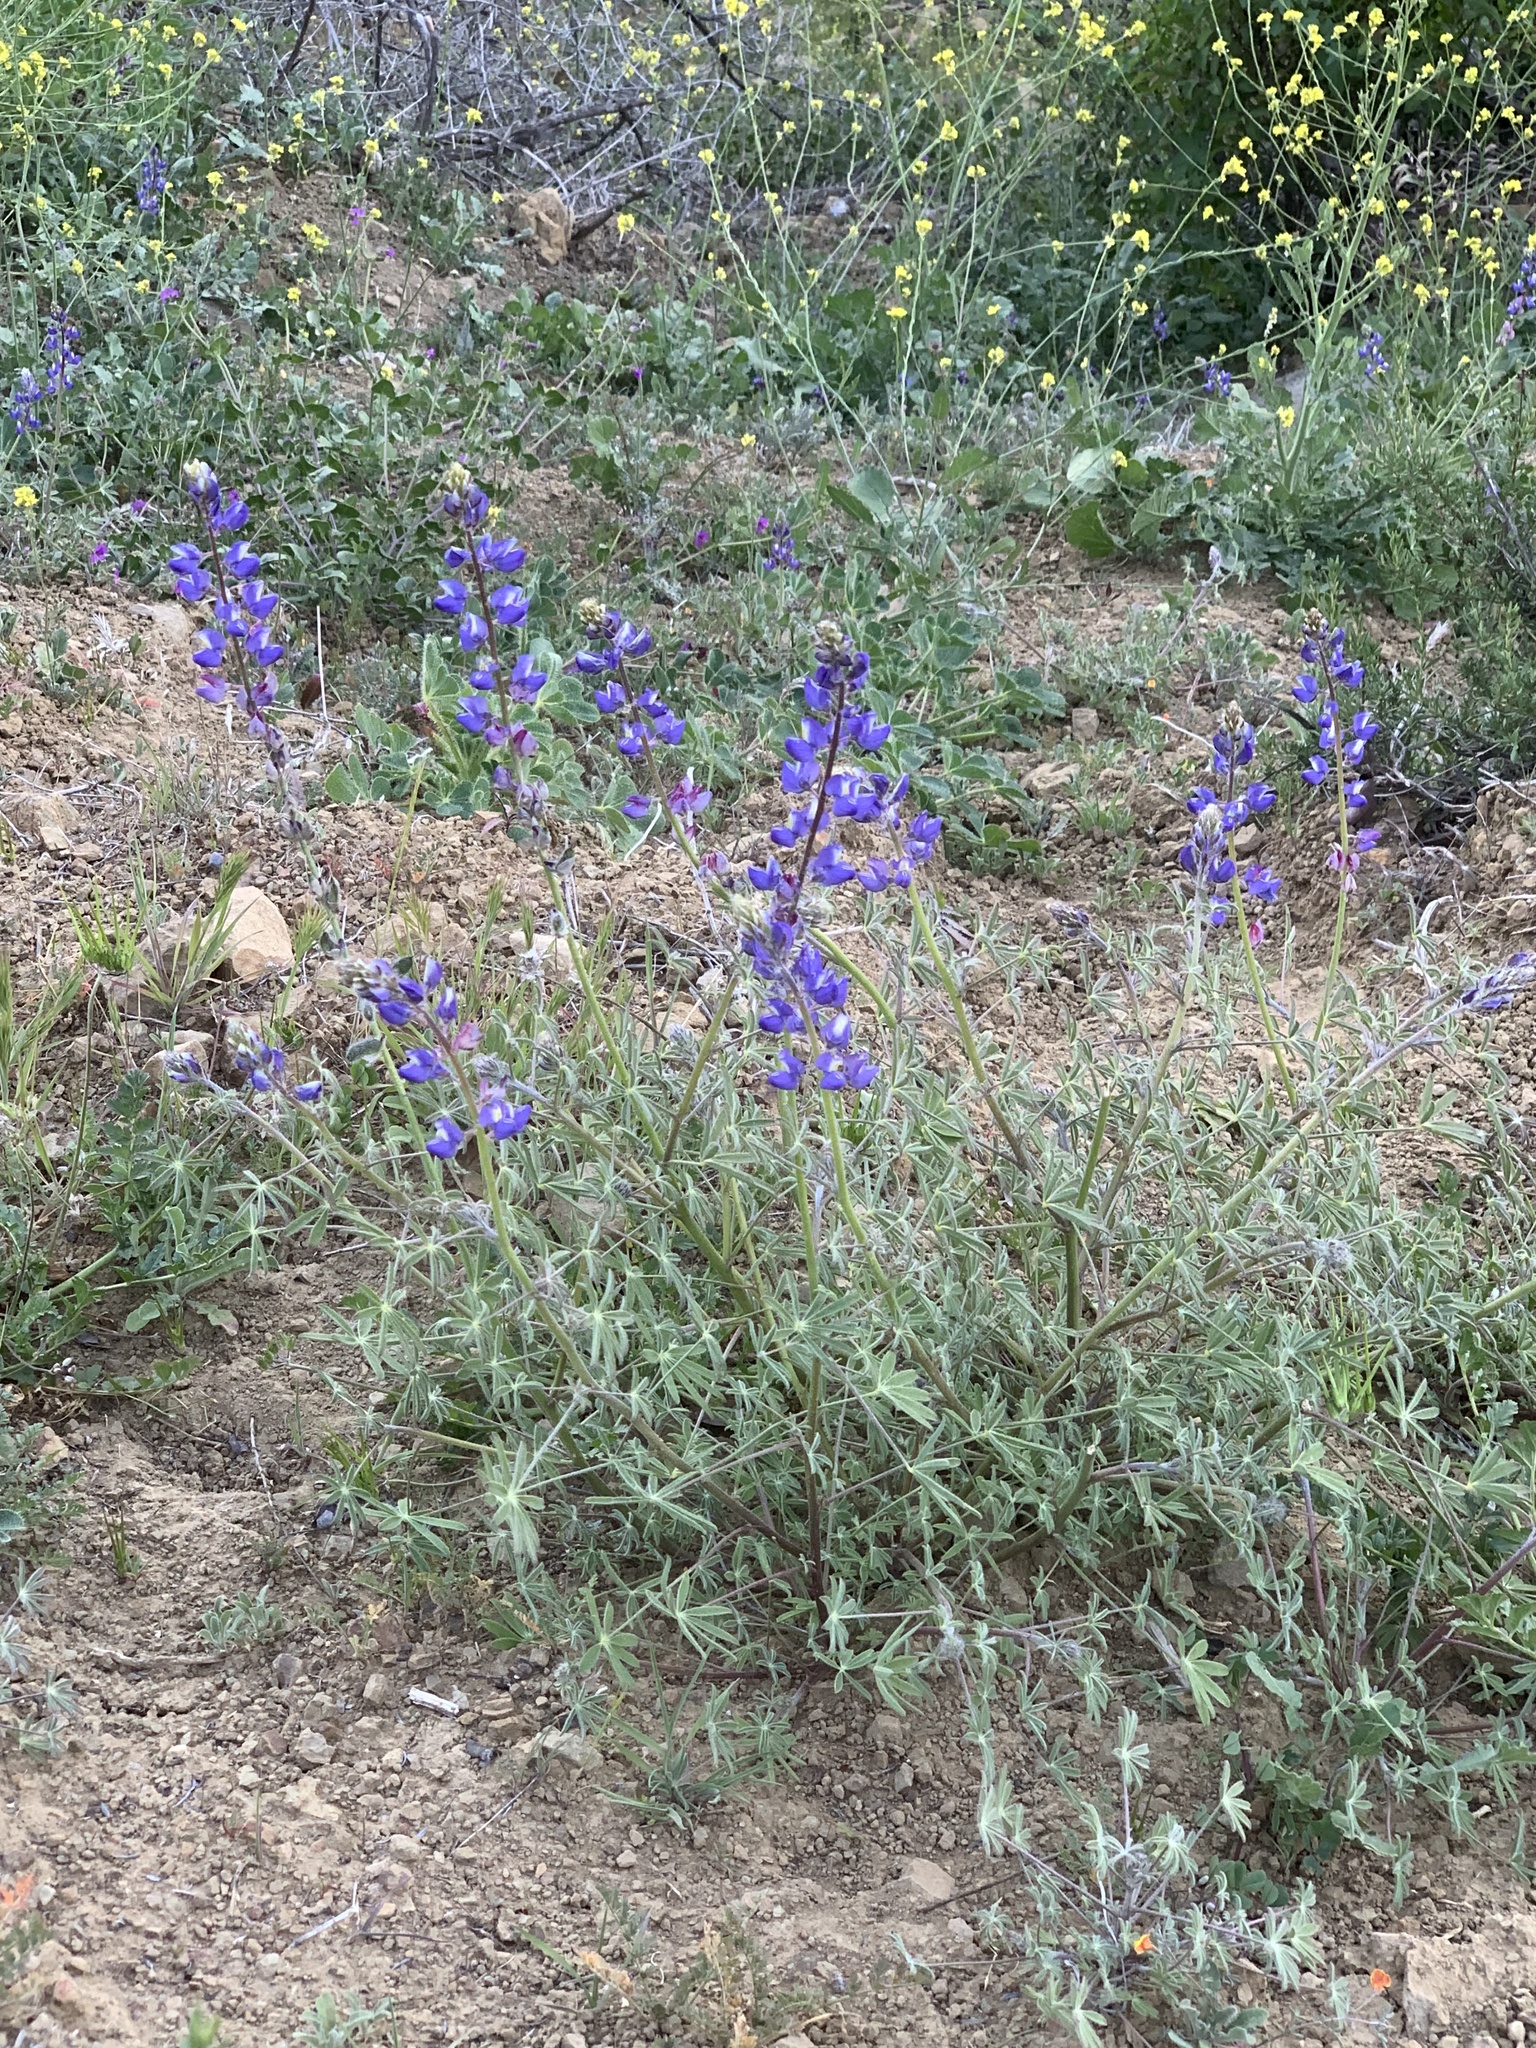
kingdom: Plantae
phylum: Tracheophyta
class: Magnoliopsida
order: Fabales
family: Fabaceae
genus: Lupinus
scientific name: Lupinus sparsiflorus
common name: Coulter's lupine
